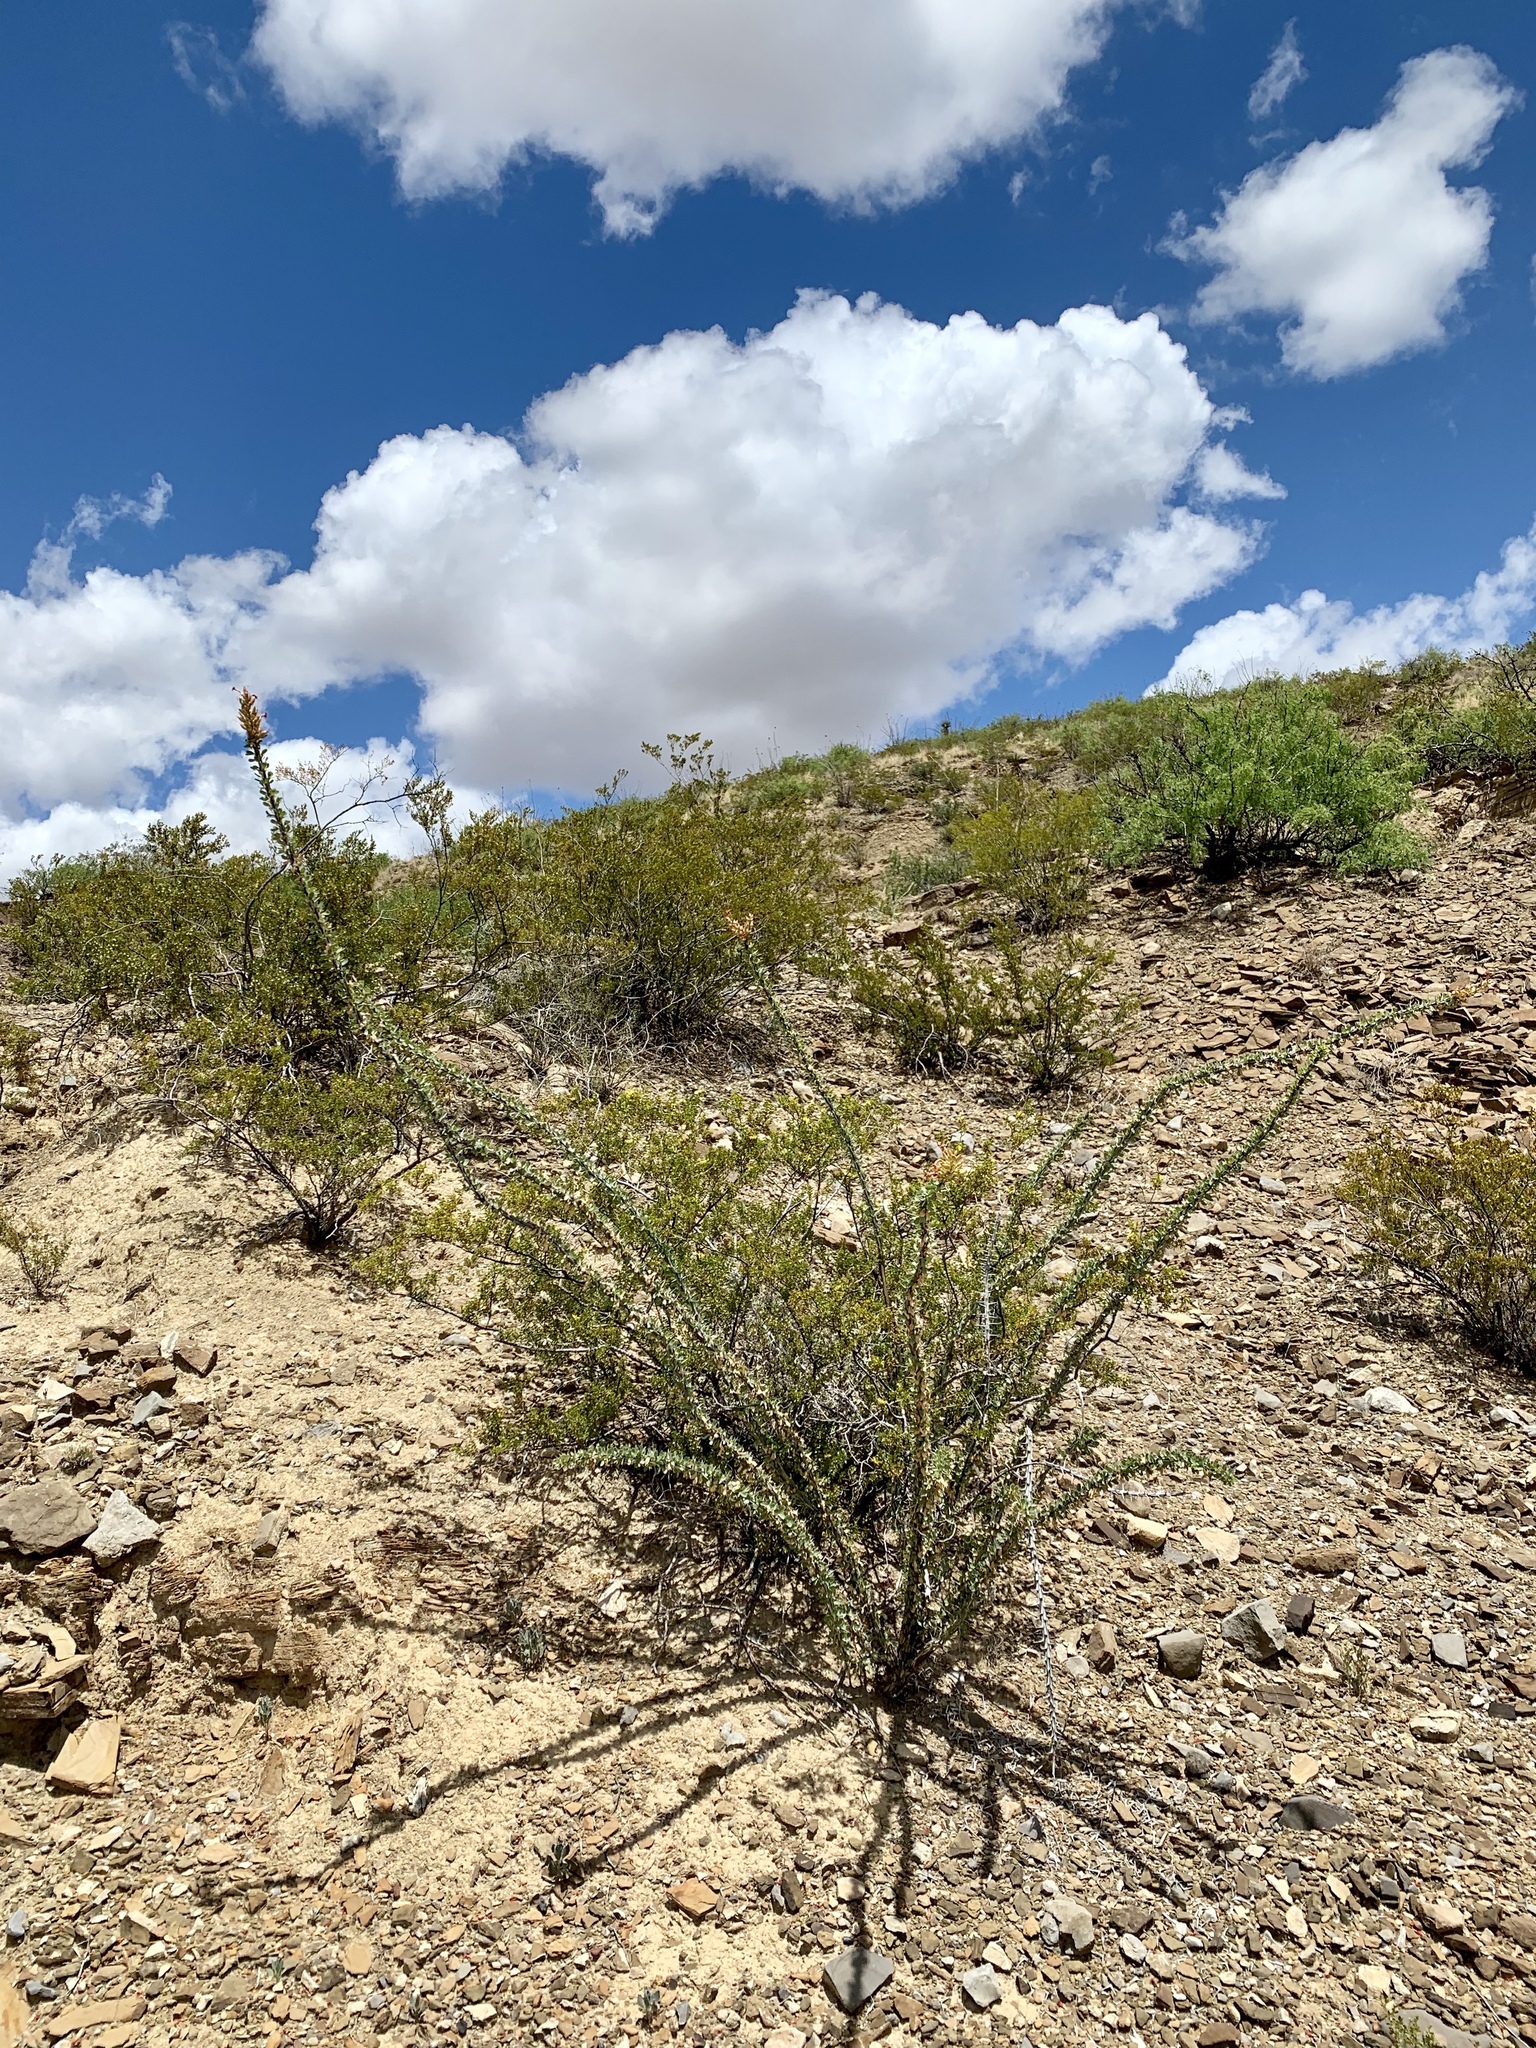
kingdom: Plantae
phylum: Tracheophyta
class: Magnoliopsida
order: Ericales
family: Fouquieriaceae
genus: Fouquieria
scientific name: Fouquieria splendens
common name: Vine-cactus
